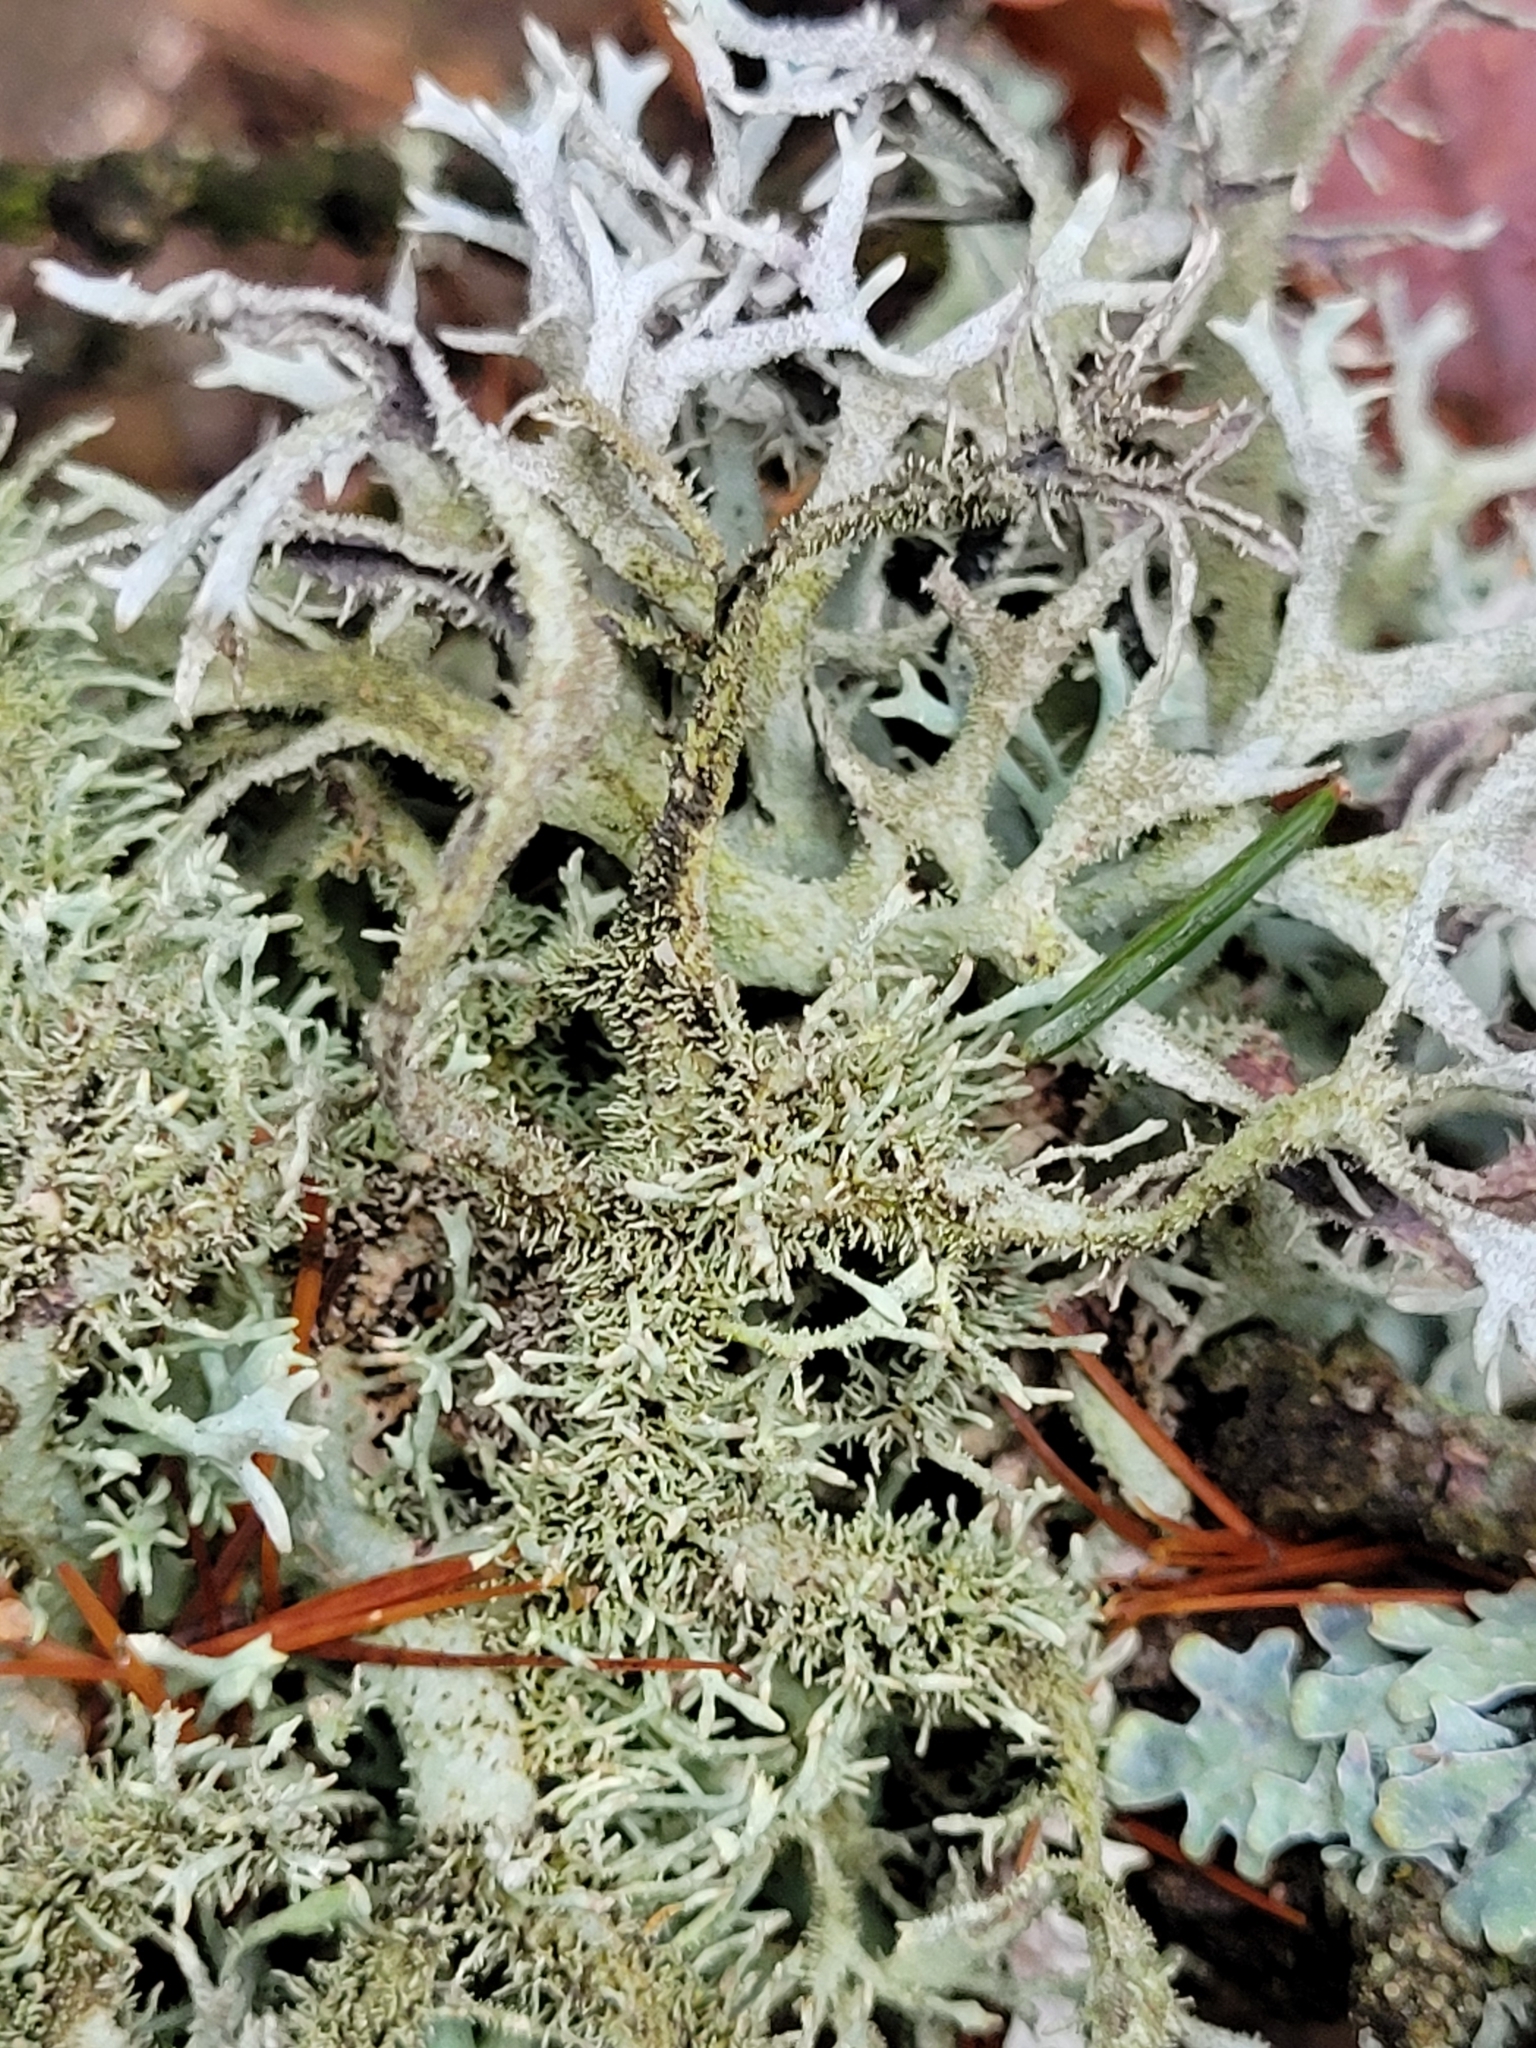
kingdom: Fungi
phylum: Ascomycota
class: Lecanoromycetes
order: Lecanorales
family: Parmeliaceae
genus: Pseudevernia
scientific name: Pseudevernia furfuracea
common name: Tree moss
